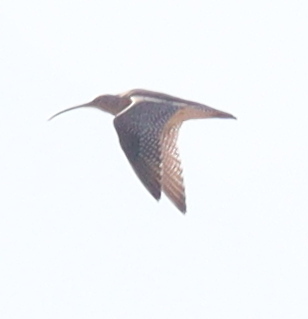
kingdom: Animalia
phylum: Chordata
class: Aves
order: Charadriiformes
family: Scolopacidae
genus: Numenius
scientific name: Numenius arquata
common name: Eurasian curlew
